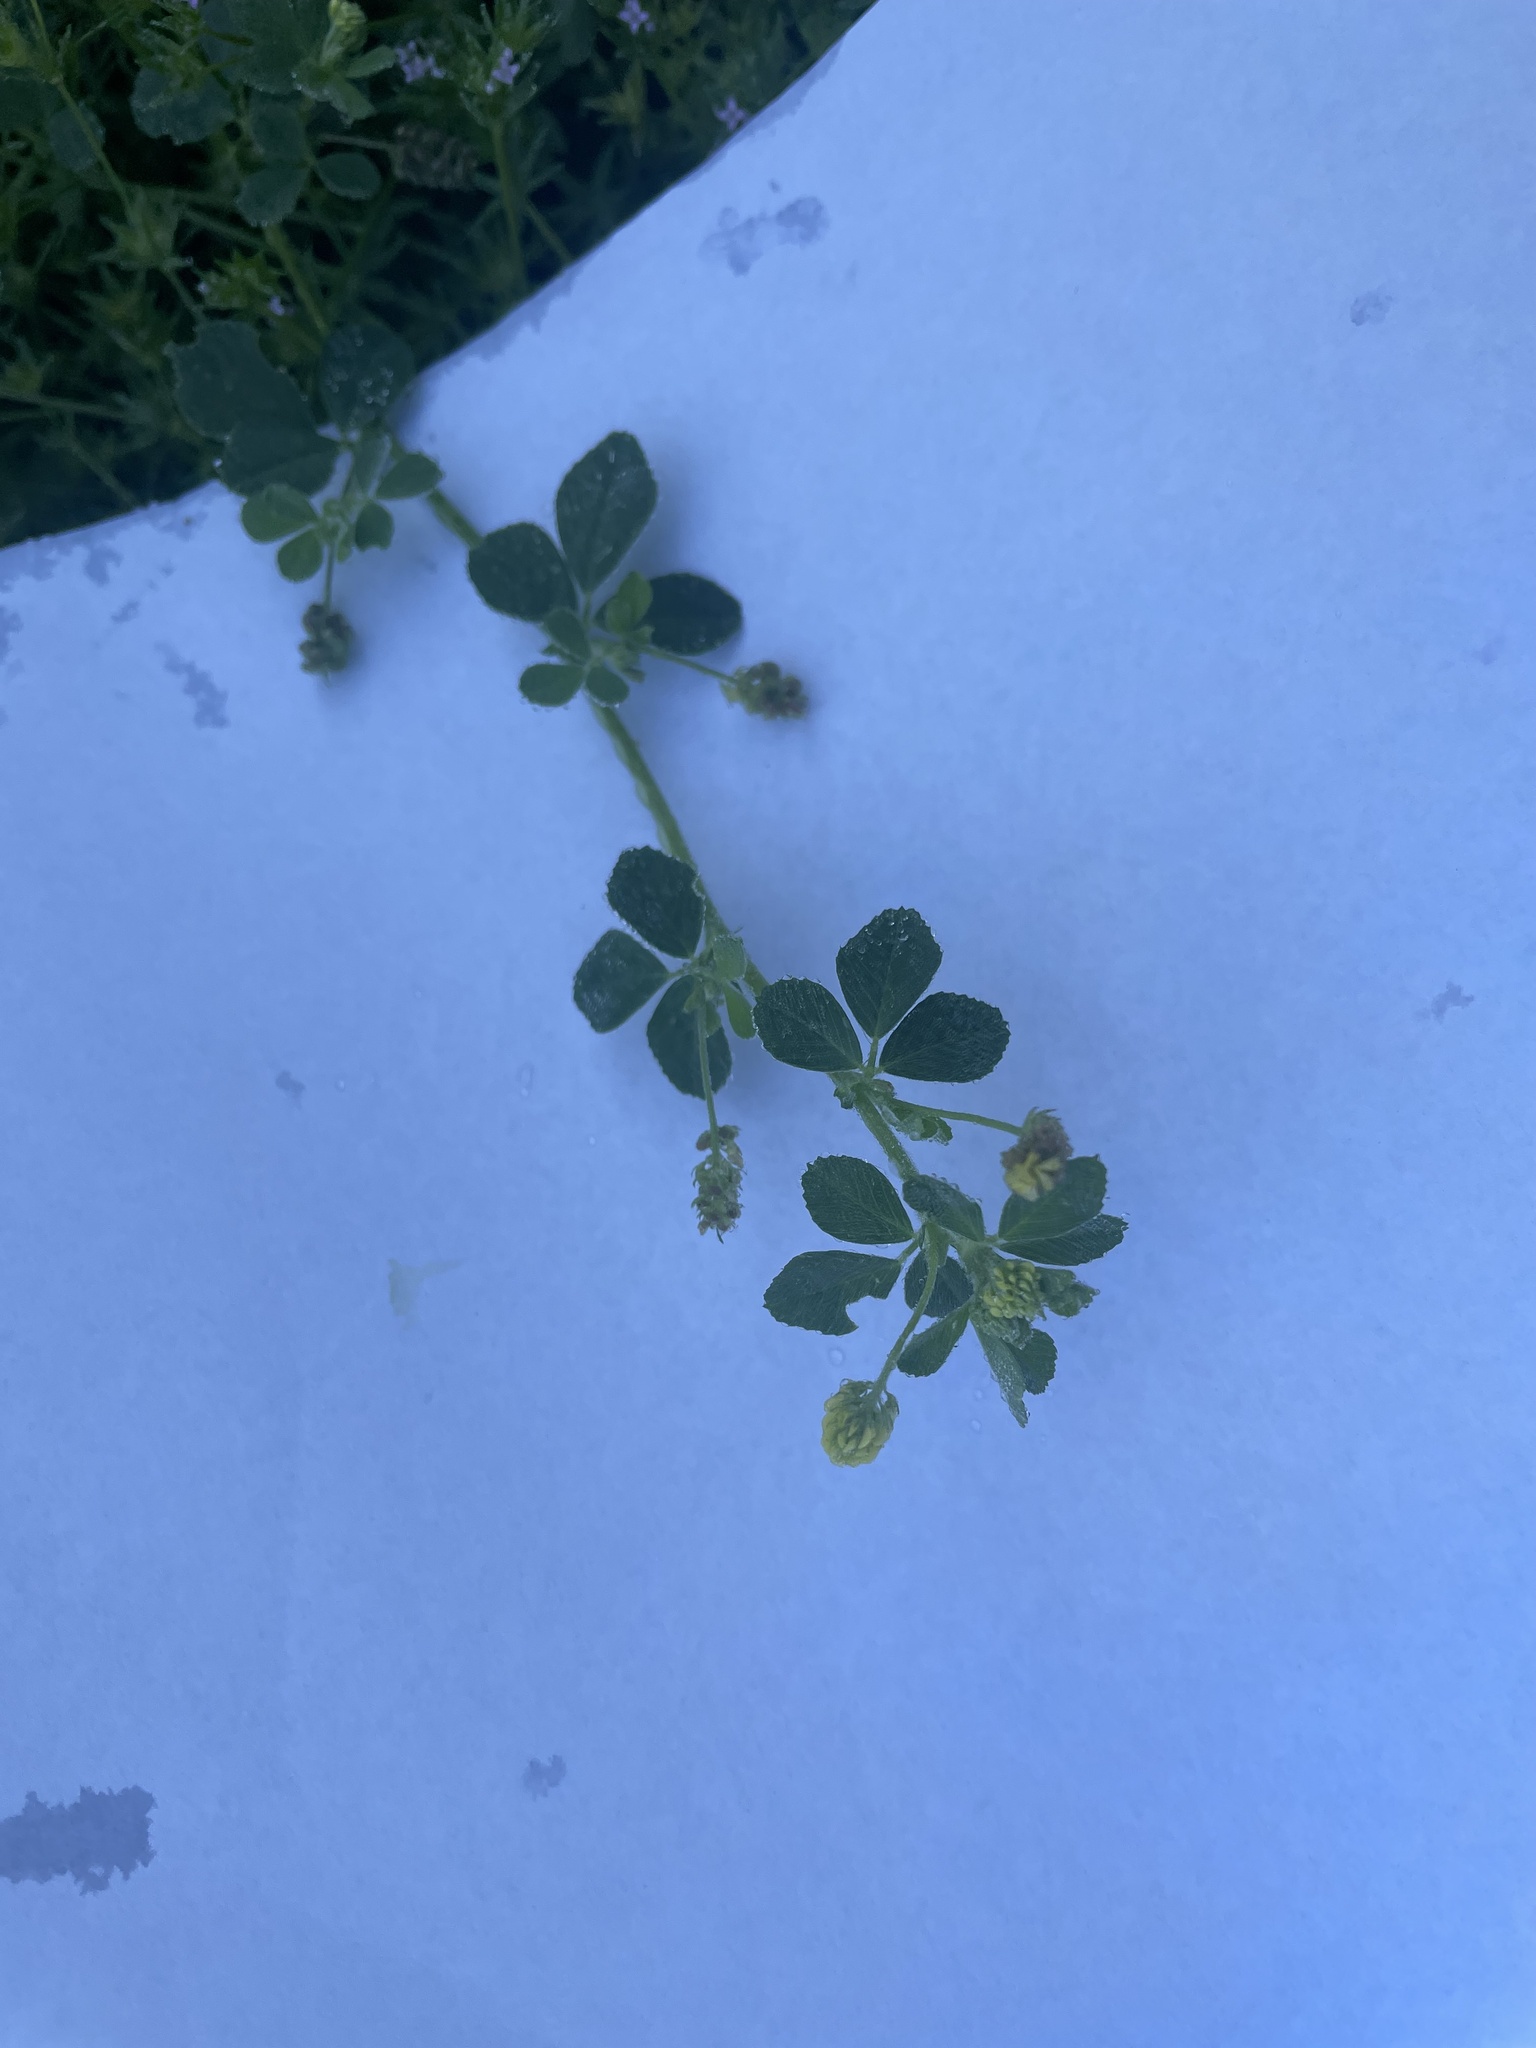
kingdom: Plantae
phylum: Tracheophyta
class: Magnoliopsida
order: Fabales
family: Fabaceae
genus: Medicago
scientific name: Medicago lupulina
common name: Black medick
